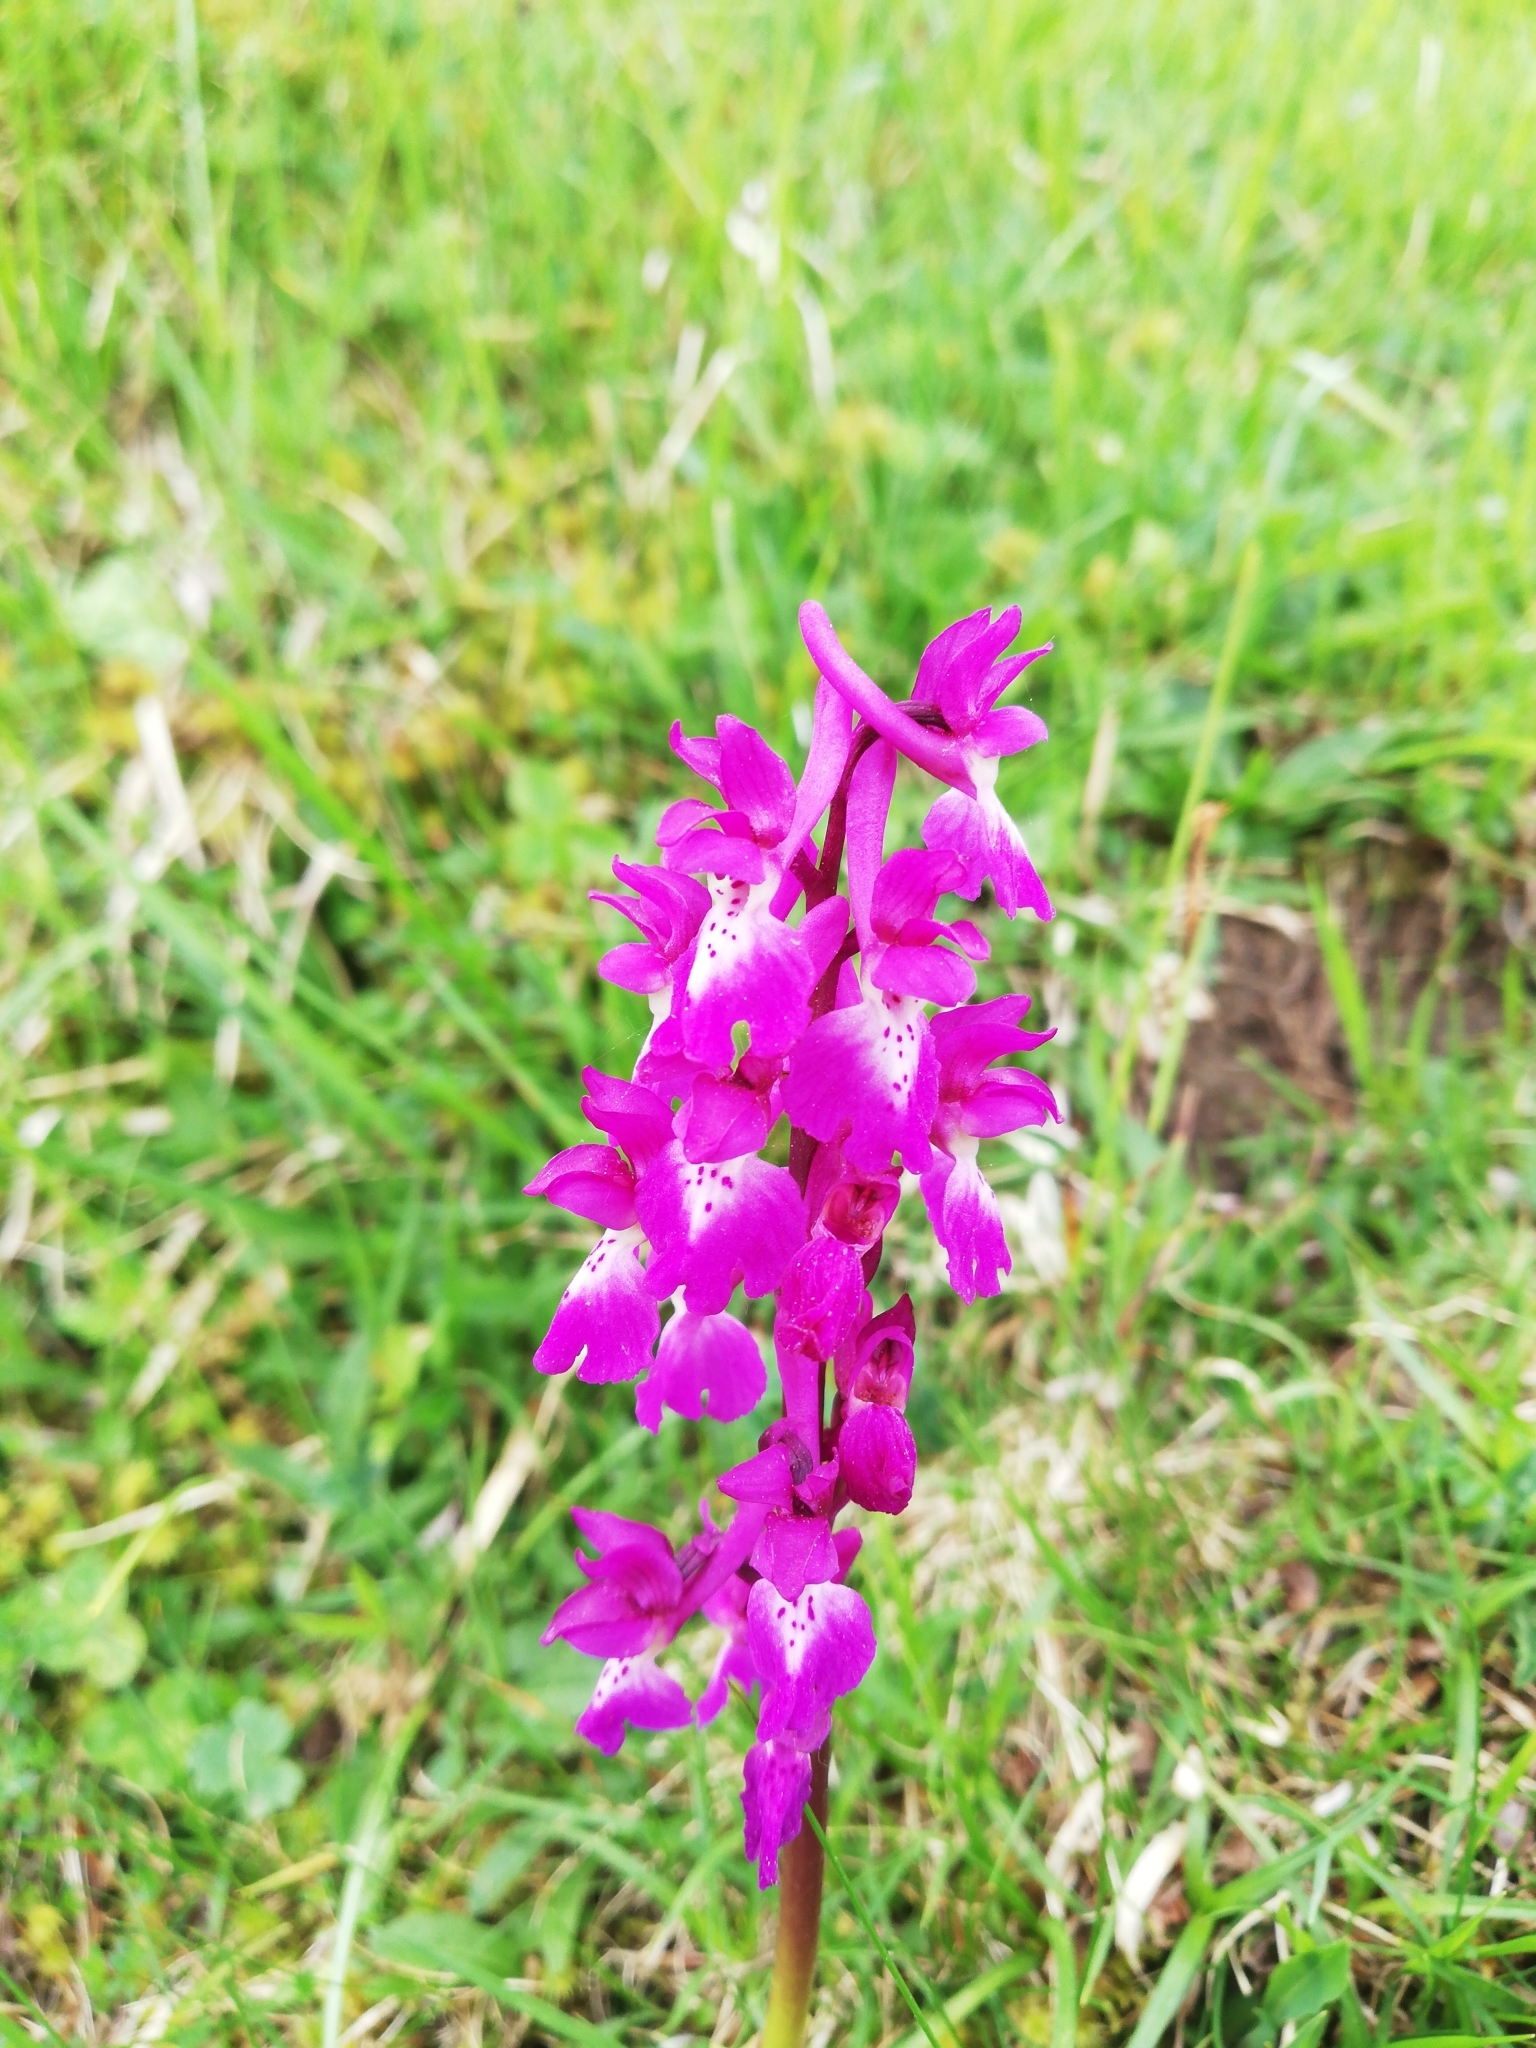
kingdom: Plantae
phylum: Tracheophyta
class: Liliopsida
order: Asparagales
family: Orchidaceae
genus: Orchis
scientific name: Orchis mascula
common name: Early-purple orchid
